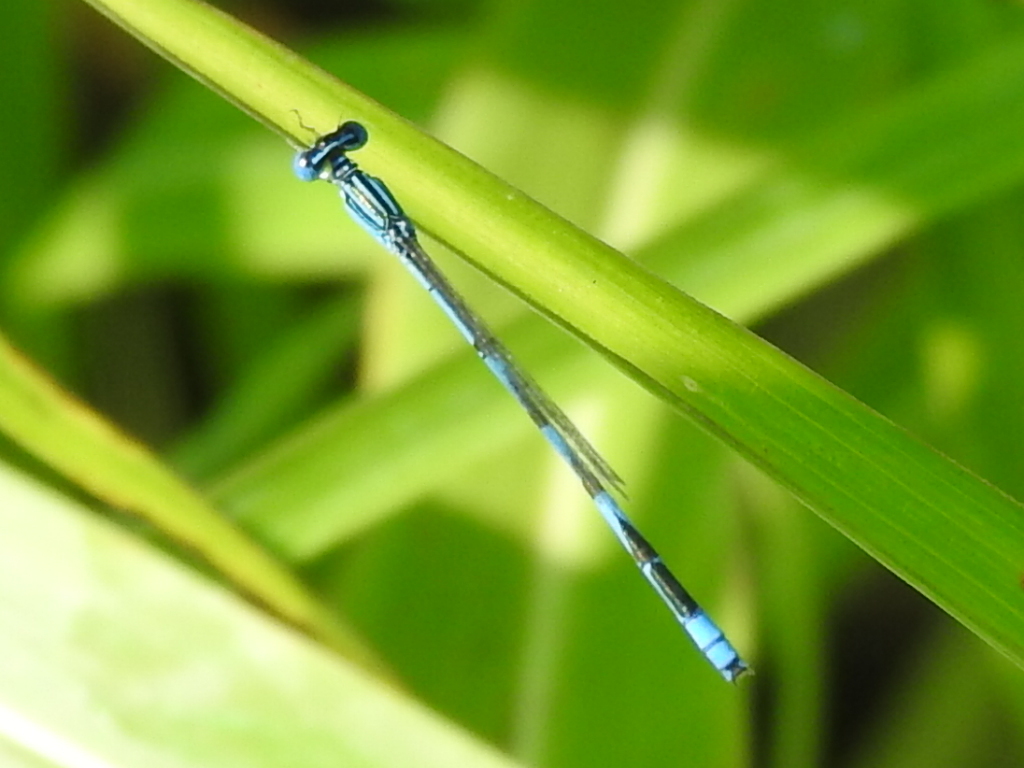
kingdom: Animalia
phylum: Arthropoda
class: Insecta
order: Odonata
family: Coenagrionidae
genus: Enallagma
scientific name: Enallagma basidens
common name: Double-striped bluet
